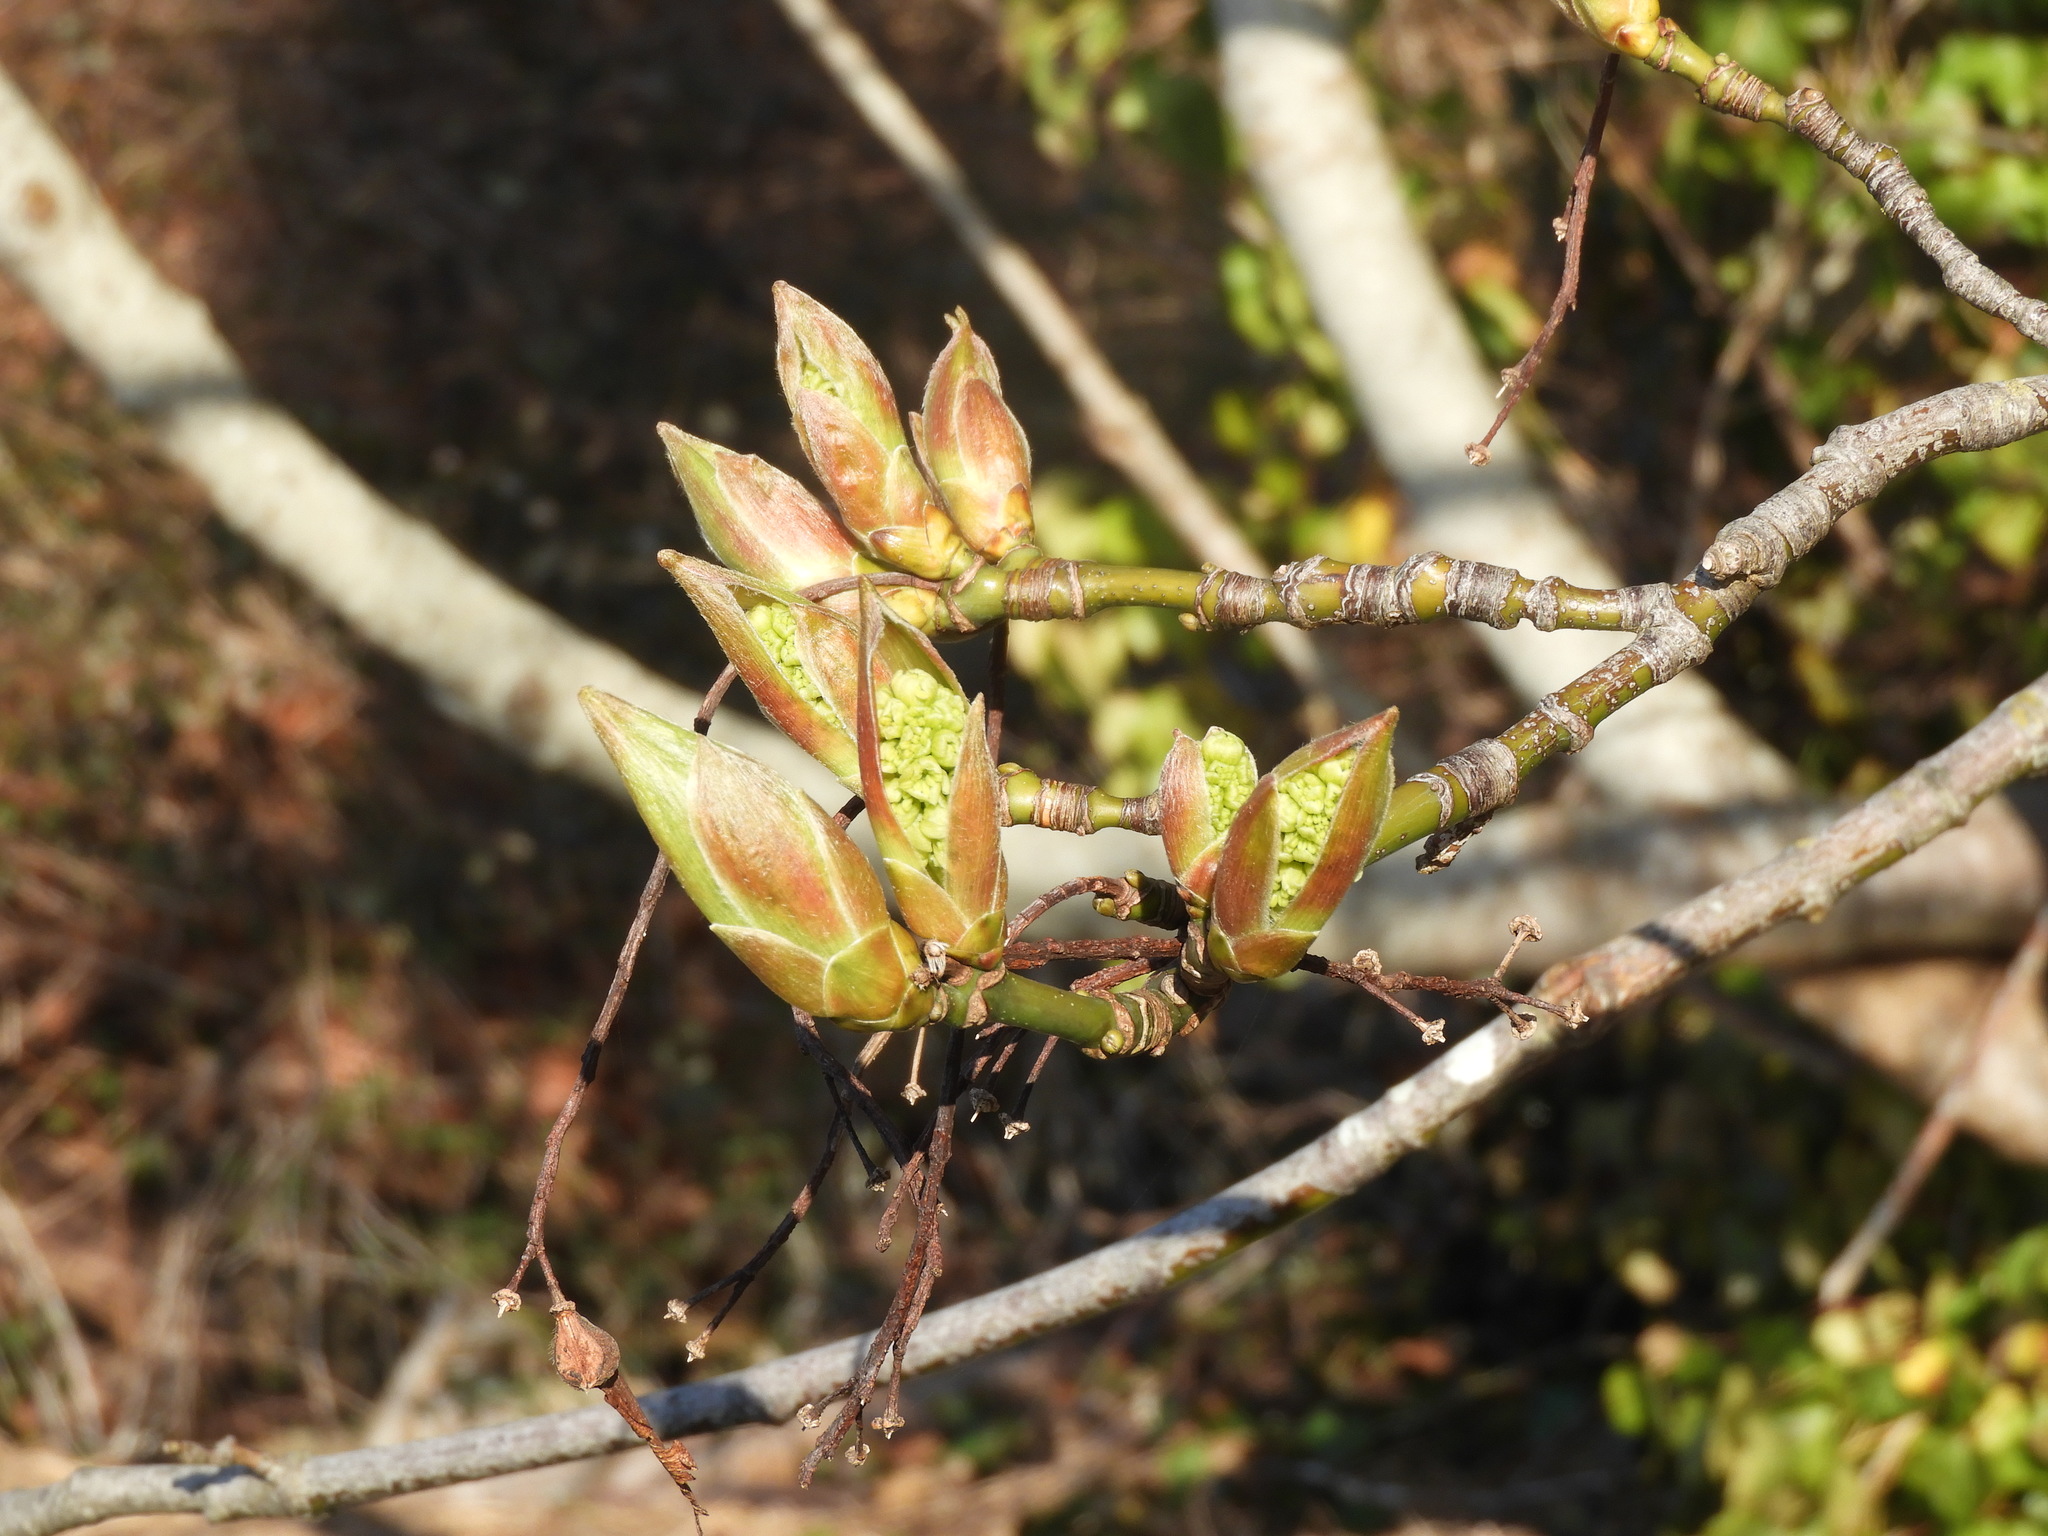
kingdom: Plantae
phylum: Tracheophyta
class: Magnoliopsida
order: Sapindales
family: Sapindaceae
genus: Acer
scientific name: Acer macrophyllum
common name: Oregon maple
